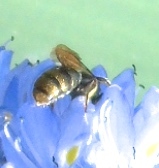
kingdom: Animalia
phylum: Arthropoda
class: Insecta
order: Hymenoptera
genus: Calloceratina
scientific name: Calloceratina
